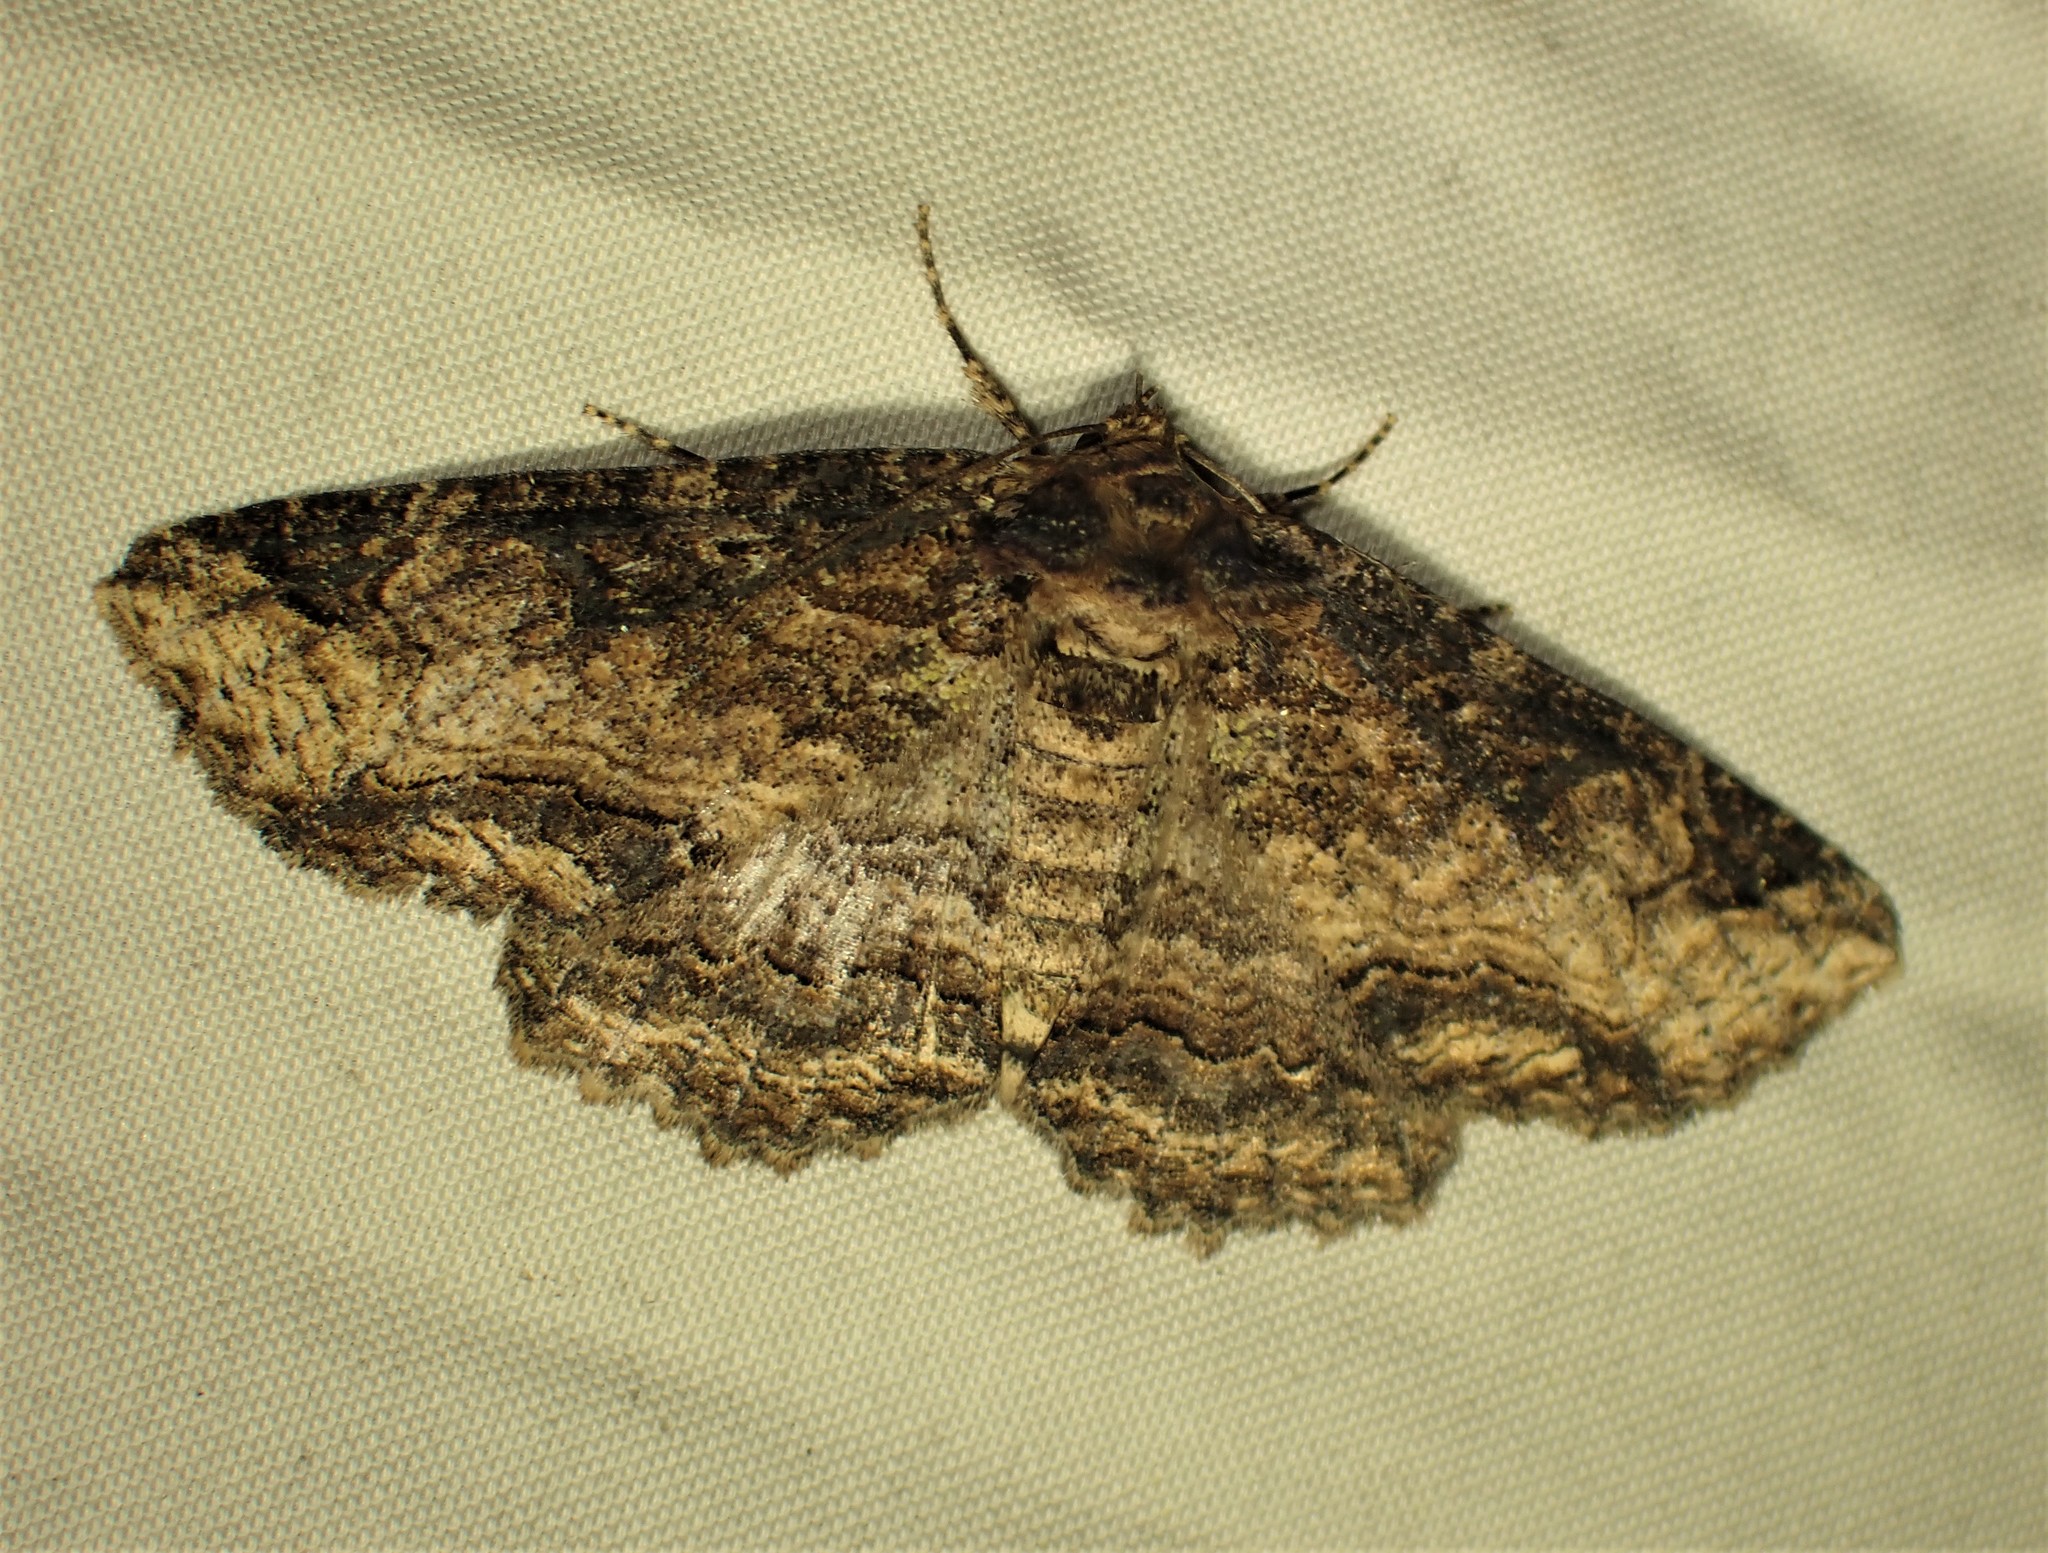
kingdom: Animalia
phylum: Arthropoda
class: Insecta
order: Lepidoptera
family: Erebidae
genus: Zale
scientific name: Zale minerea
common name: Colorful zale moth
